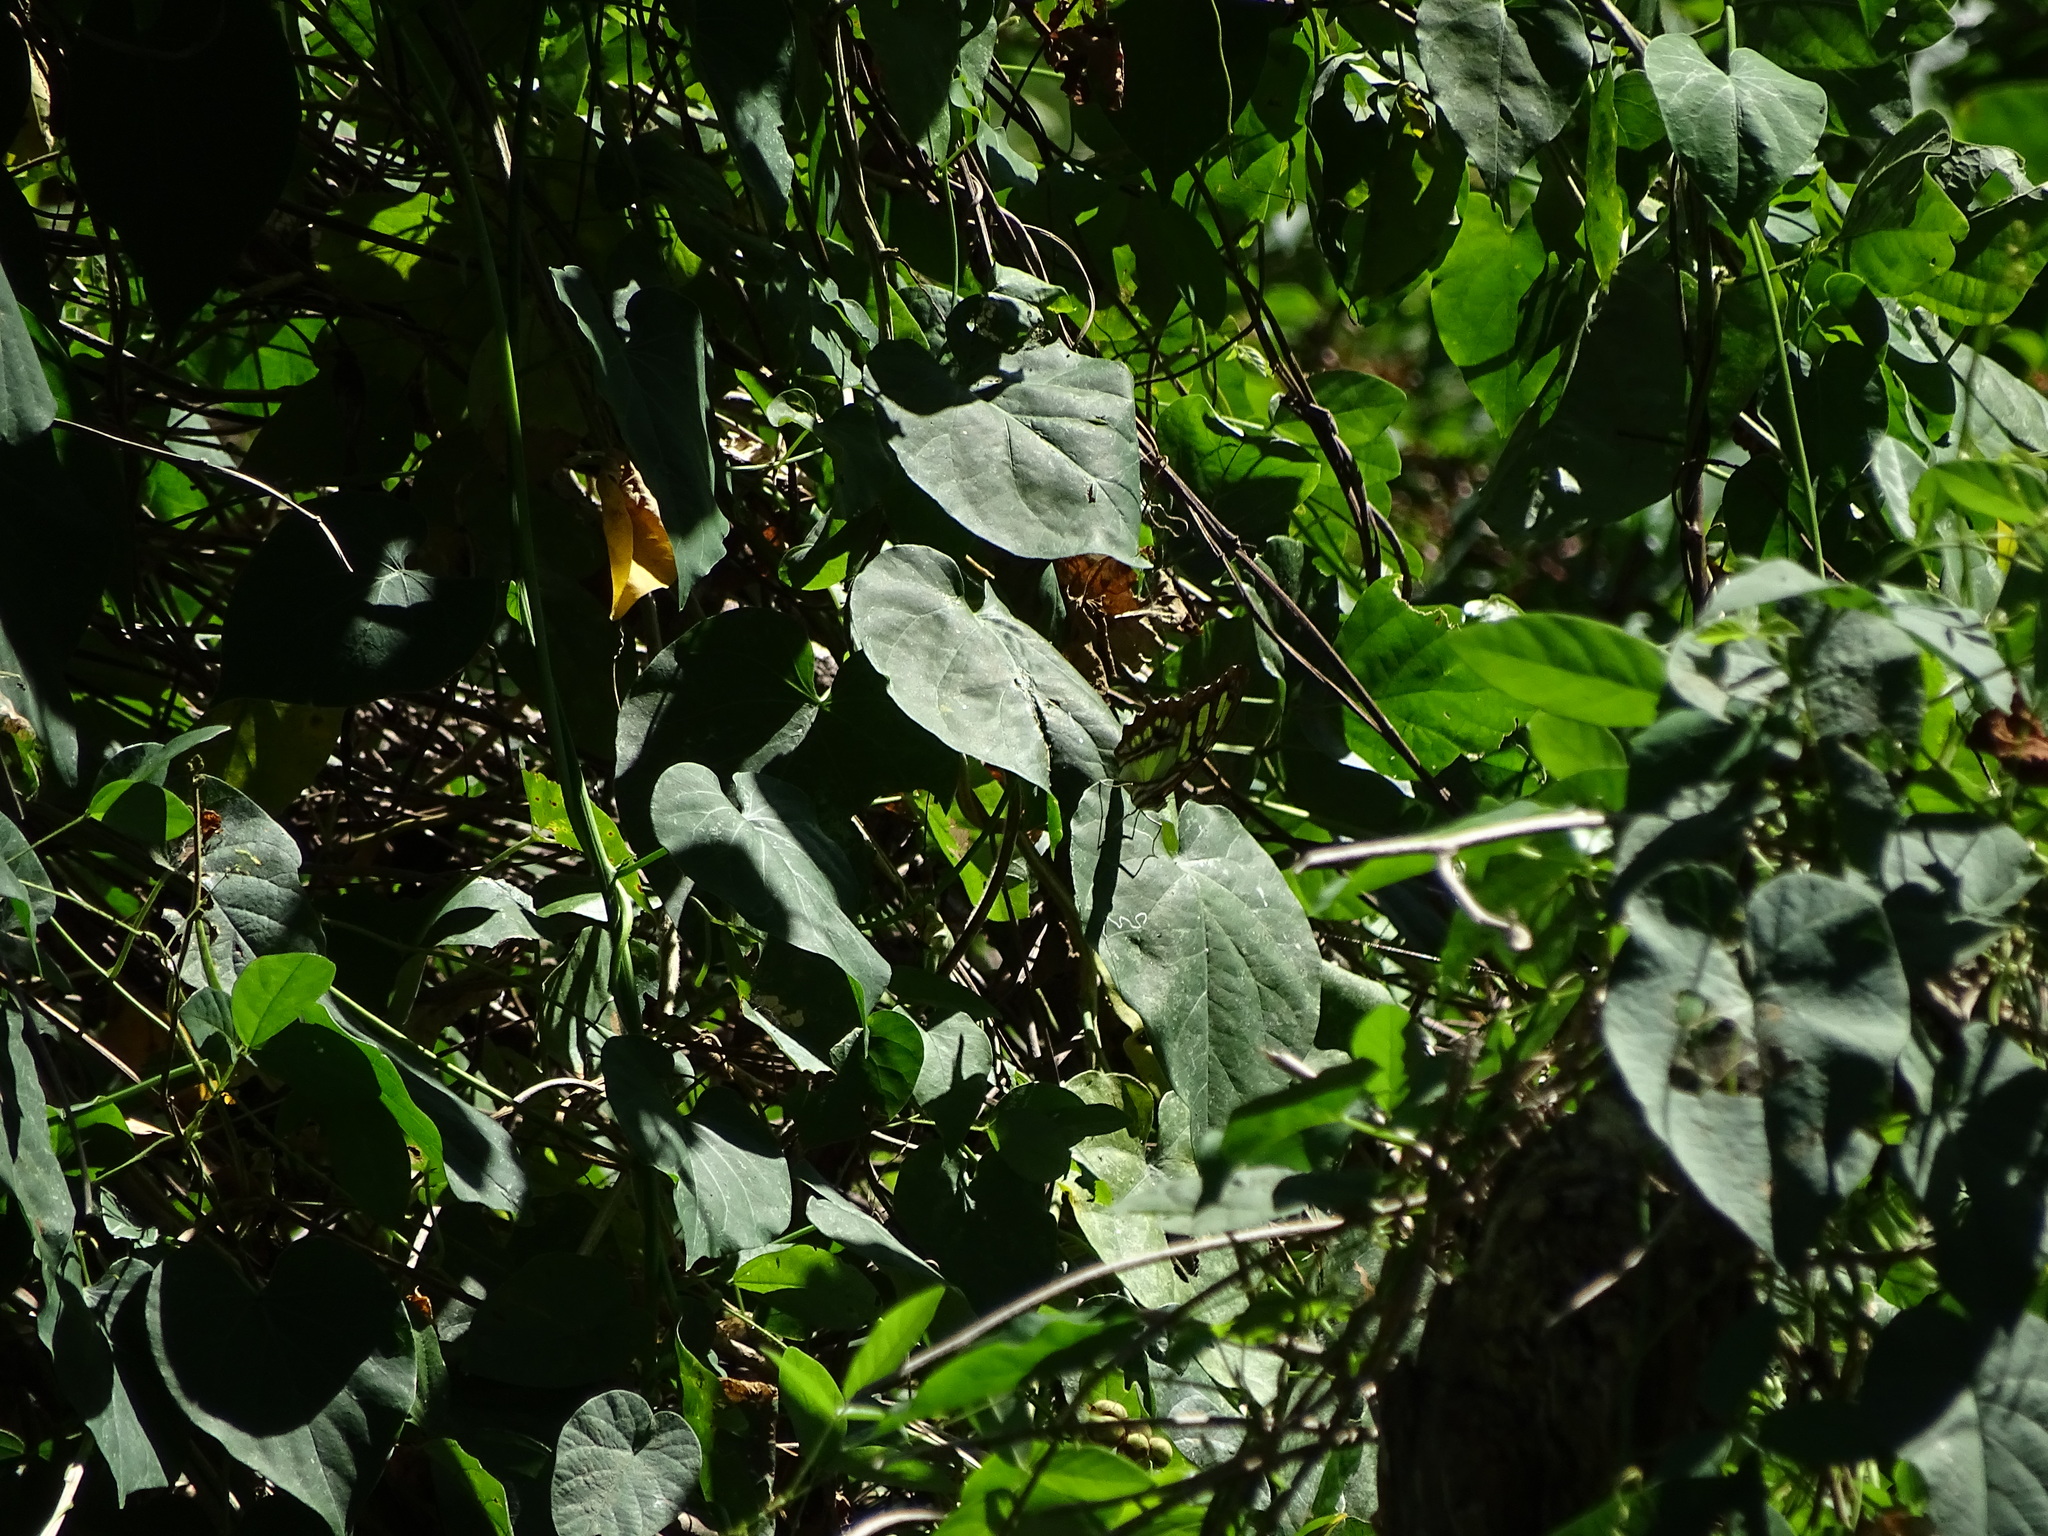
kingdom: Animalia
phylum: Arthropoda
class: Insecta
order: Lepidoptera
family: Nymphalidae
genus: Siproeta
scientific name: Siproeta stelenes
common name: Malachite
